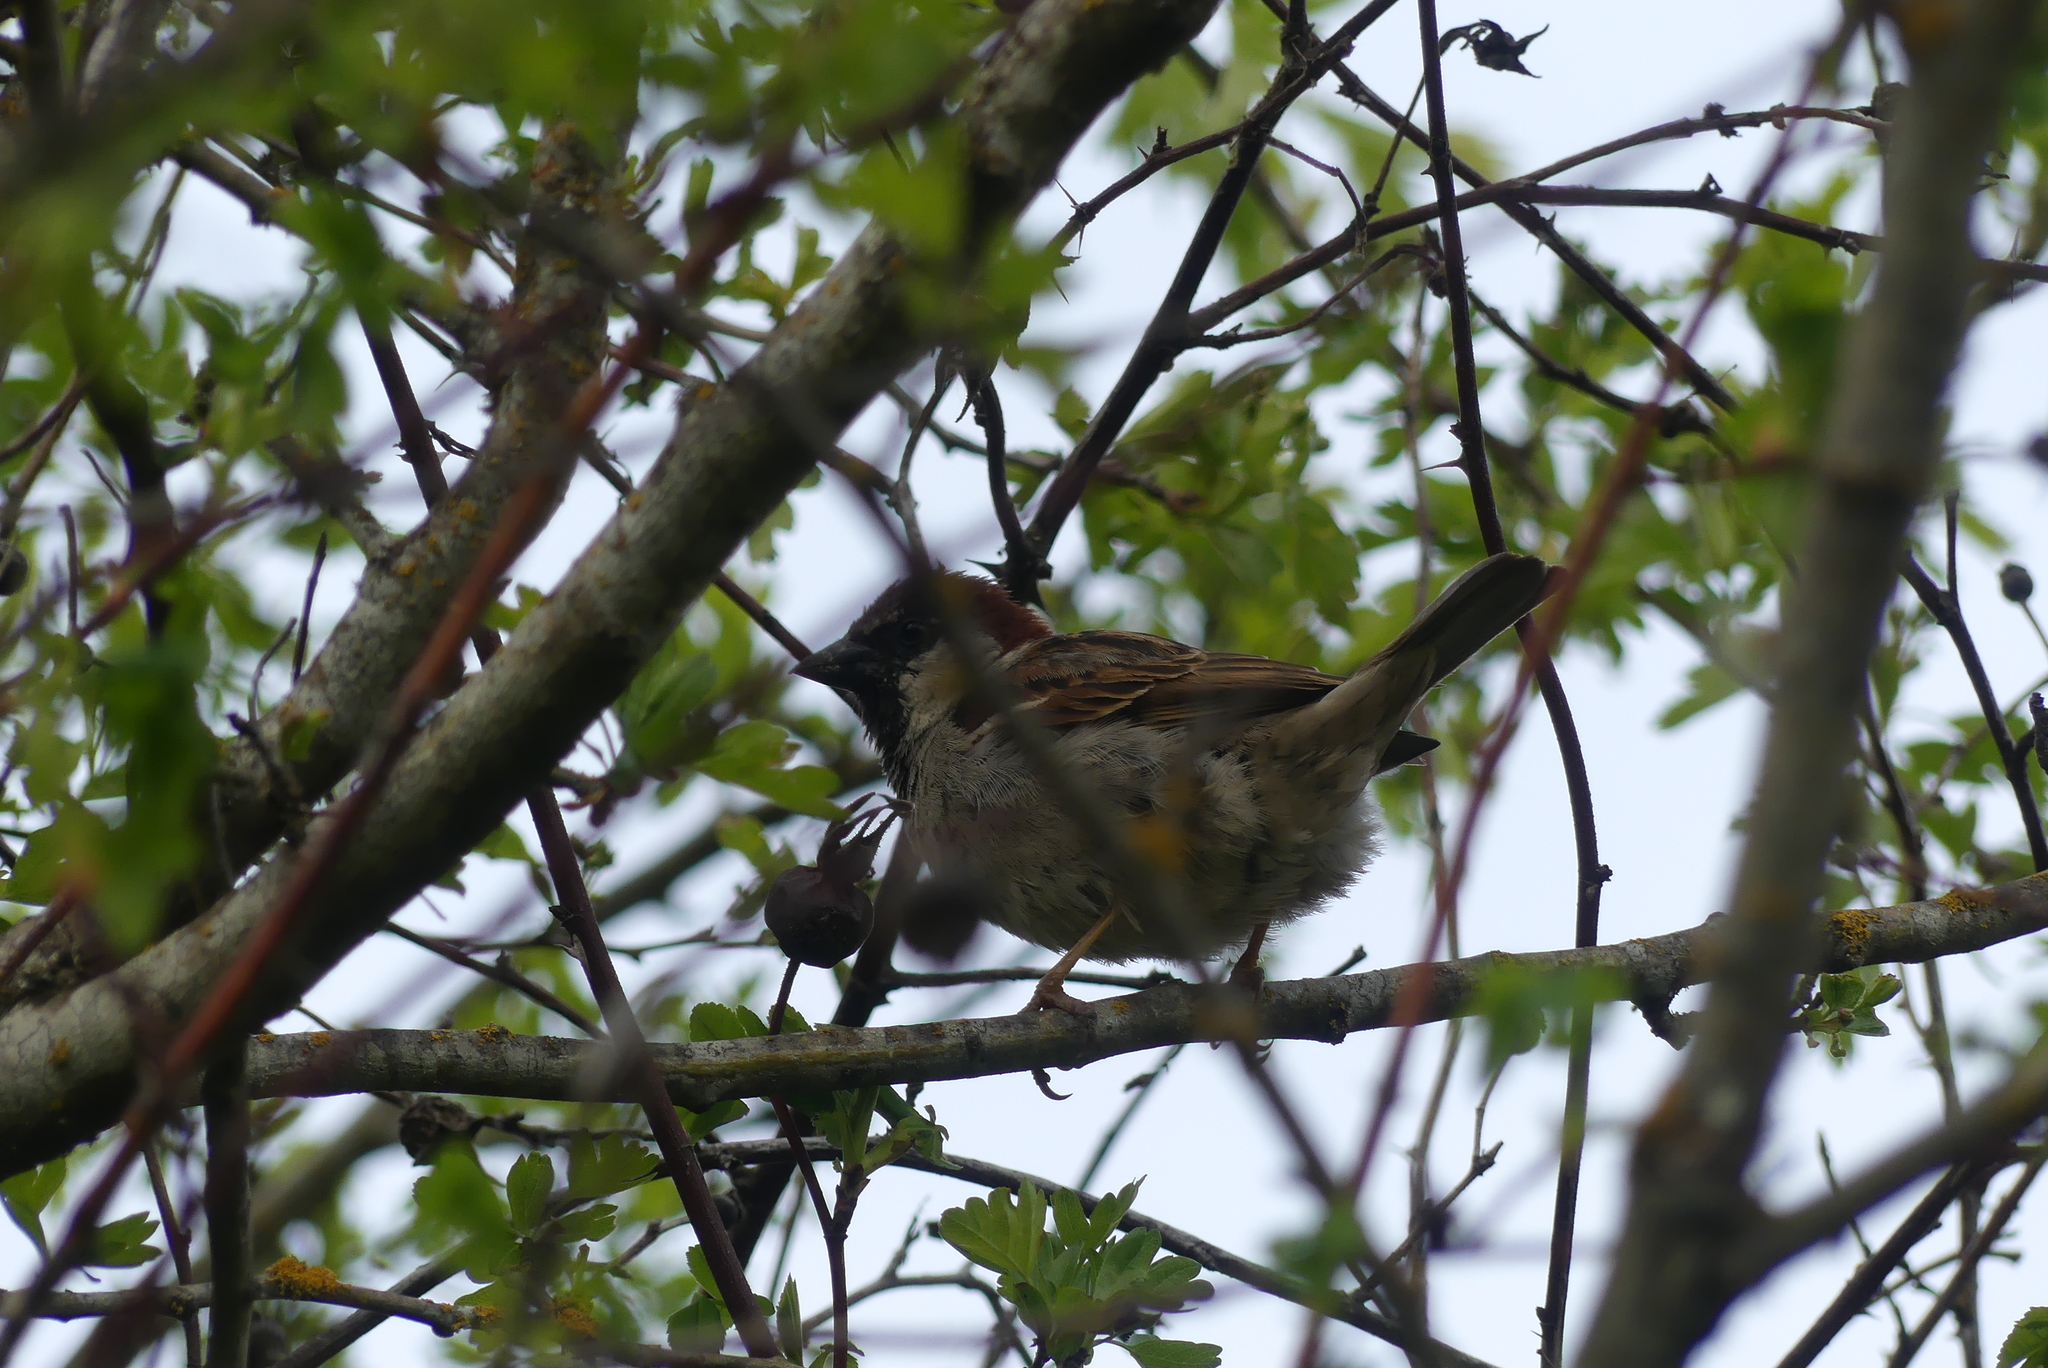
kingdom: Animalia
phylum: Chordata
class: Aves
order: Passeriformes
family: Passeridae
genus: Passer
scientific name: Passer domesticus
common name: House sparrow
